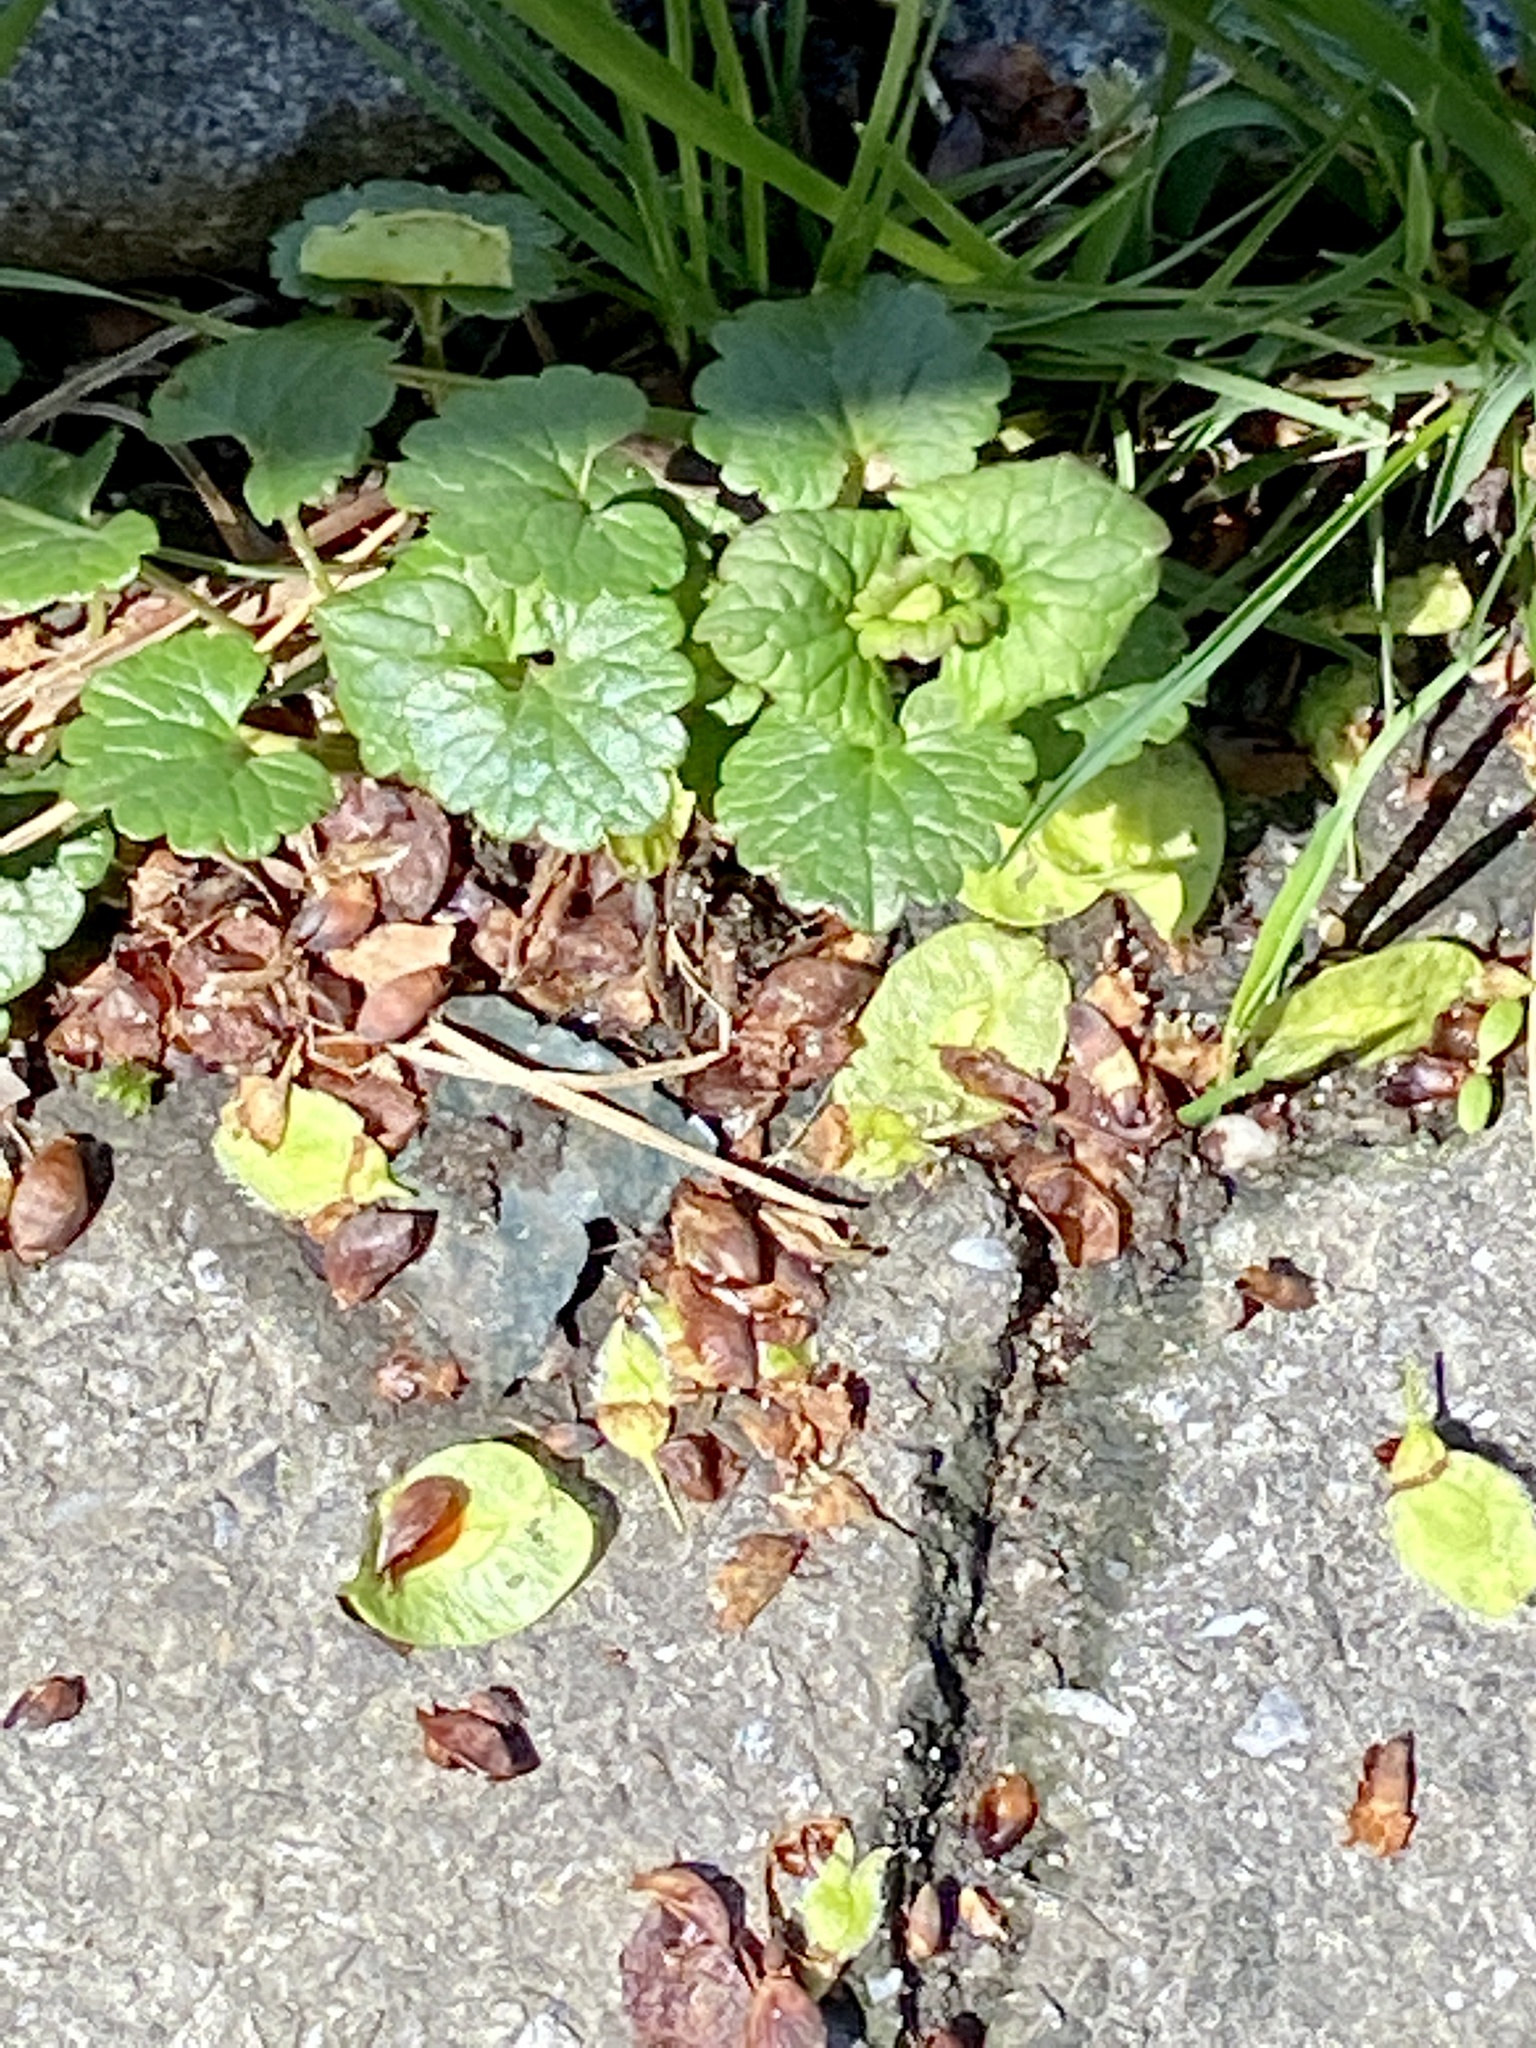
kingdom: Plantae
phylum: Tracheophyta
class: Magnoliopsida
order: Lamiales
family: Lamiaceae
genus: Glechoma
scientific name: Glechoma hederacea
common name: Ground ivy
